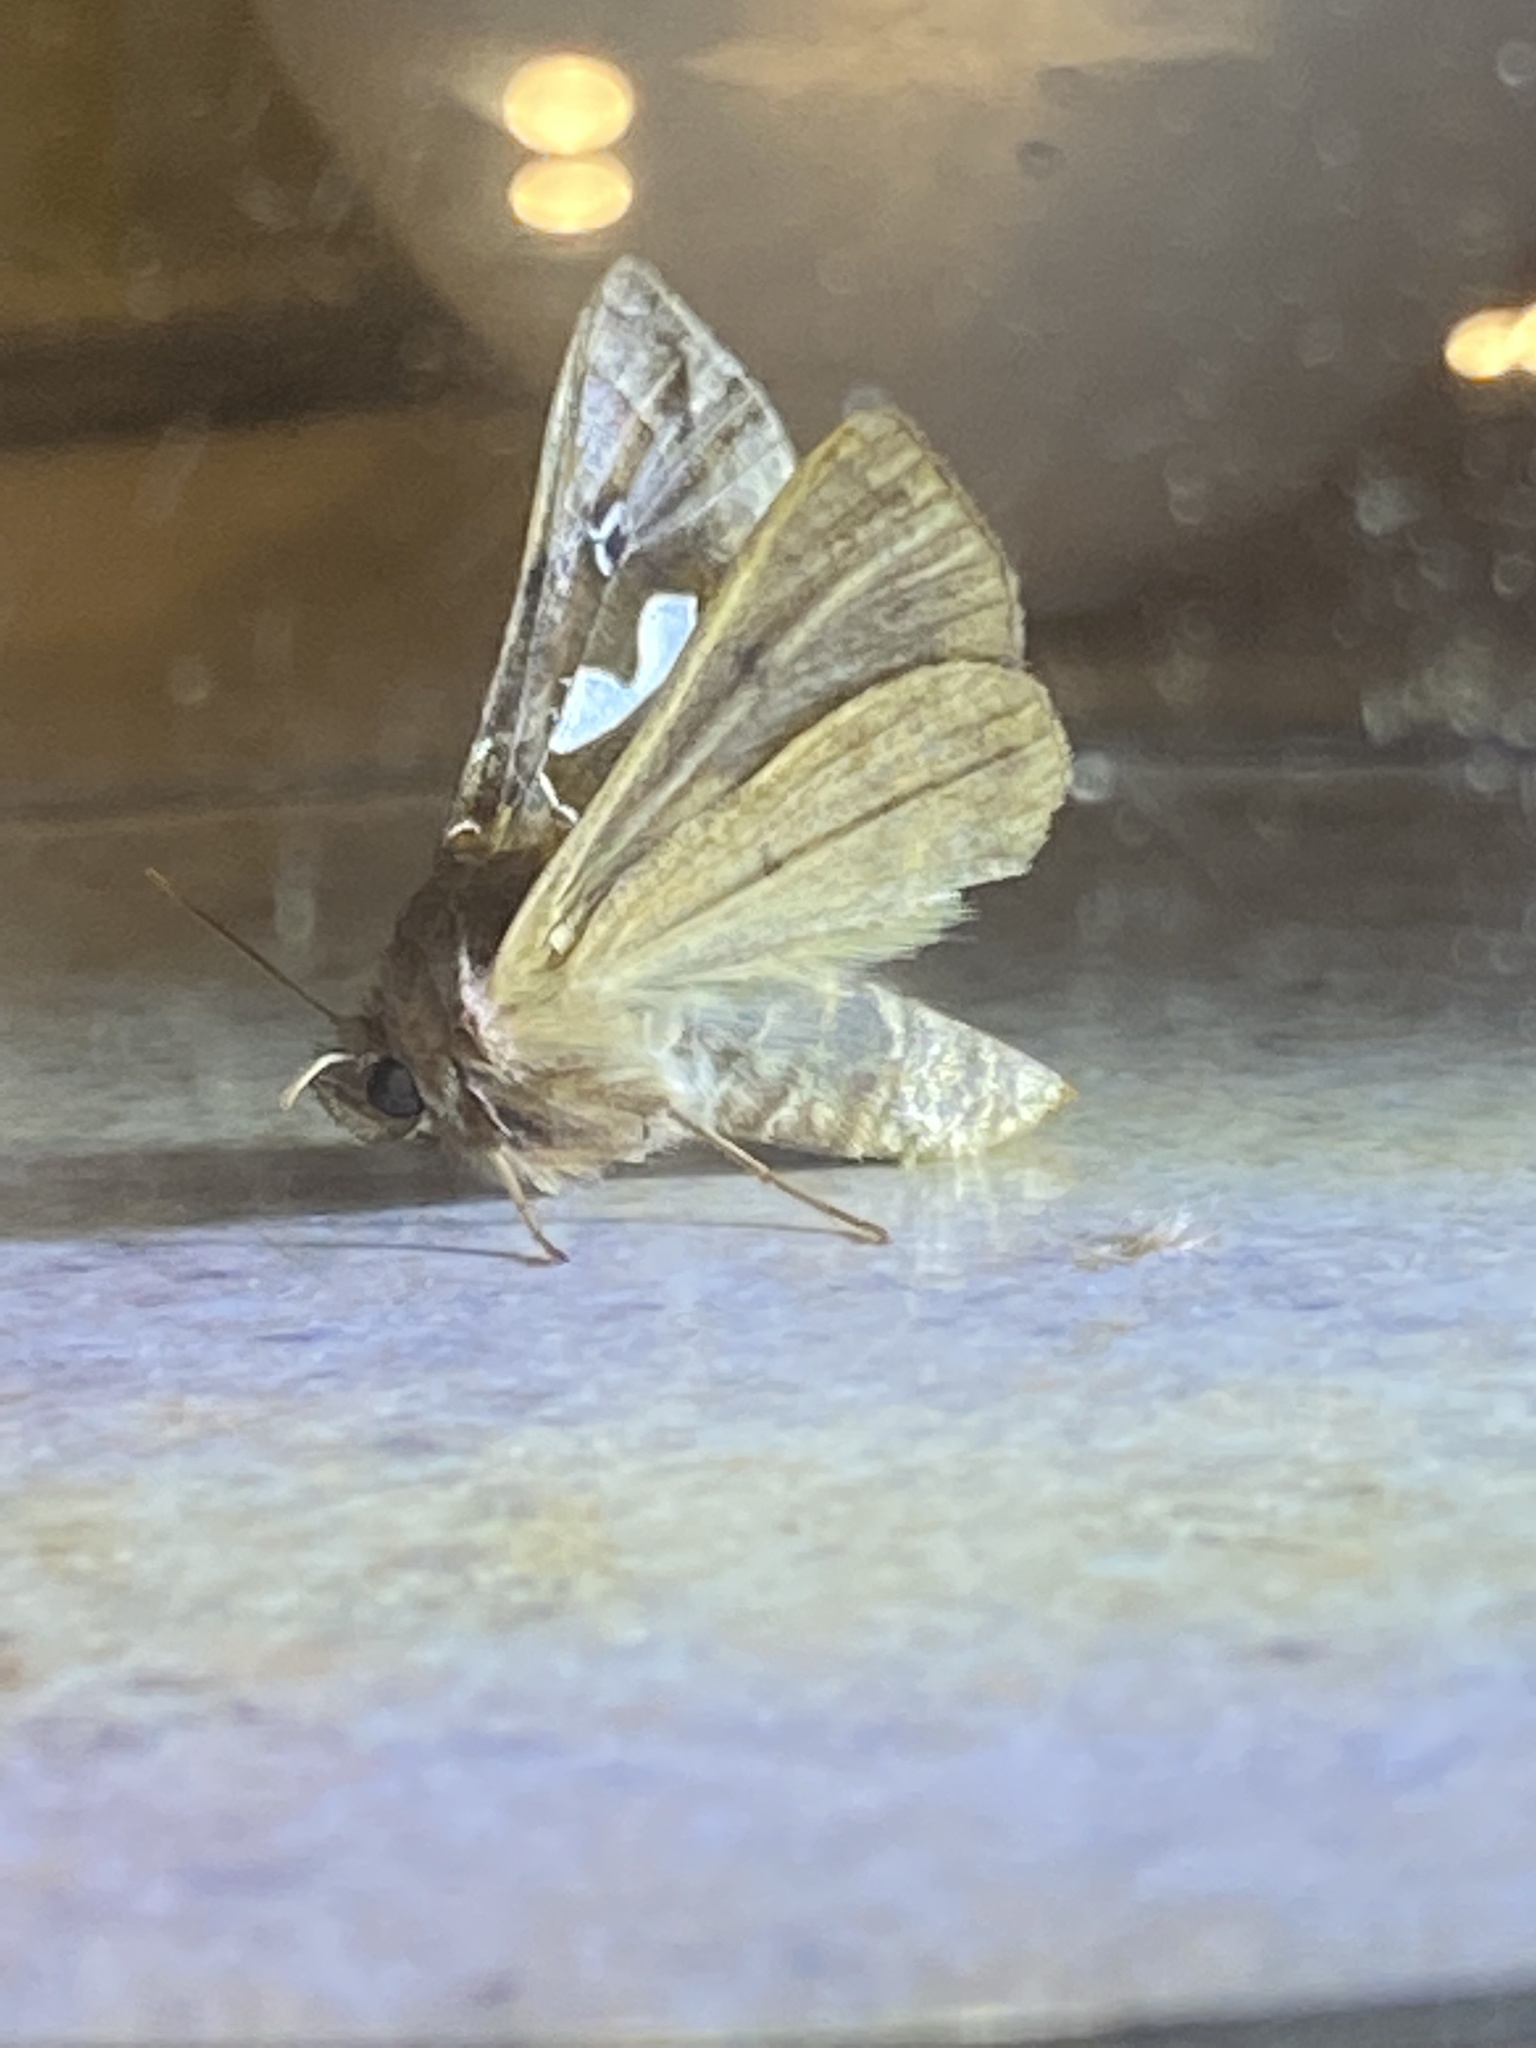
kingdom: Animalia
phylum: Arthropoda
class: Insecta
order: Lepidoptera
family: Noctuidae
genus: Megalographa
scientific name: Megalographa biloba
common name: Cutworm
